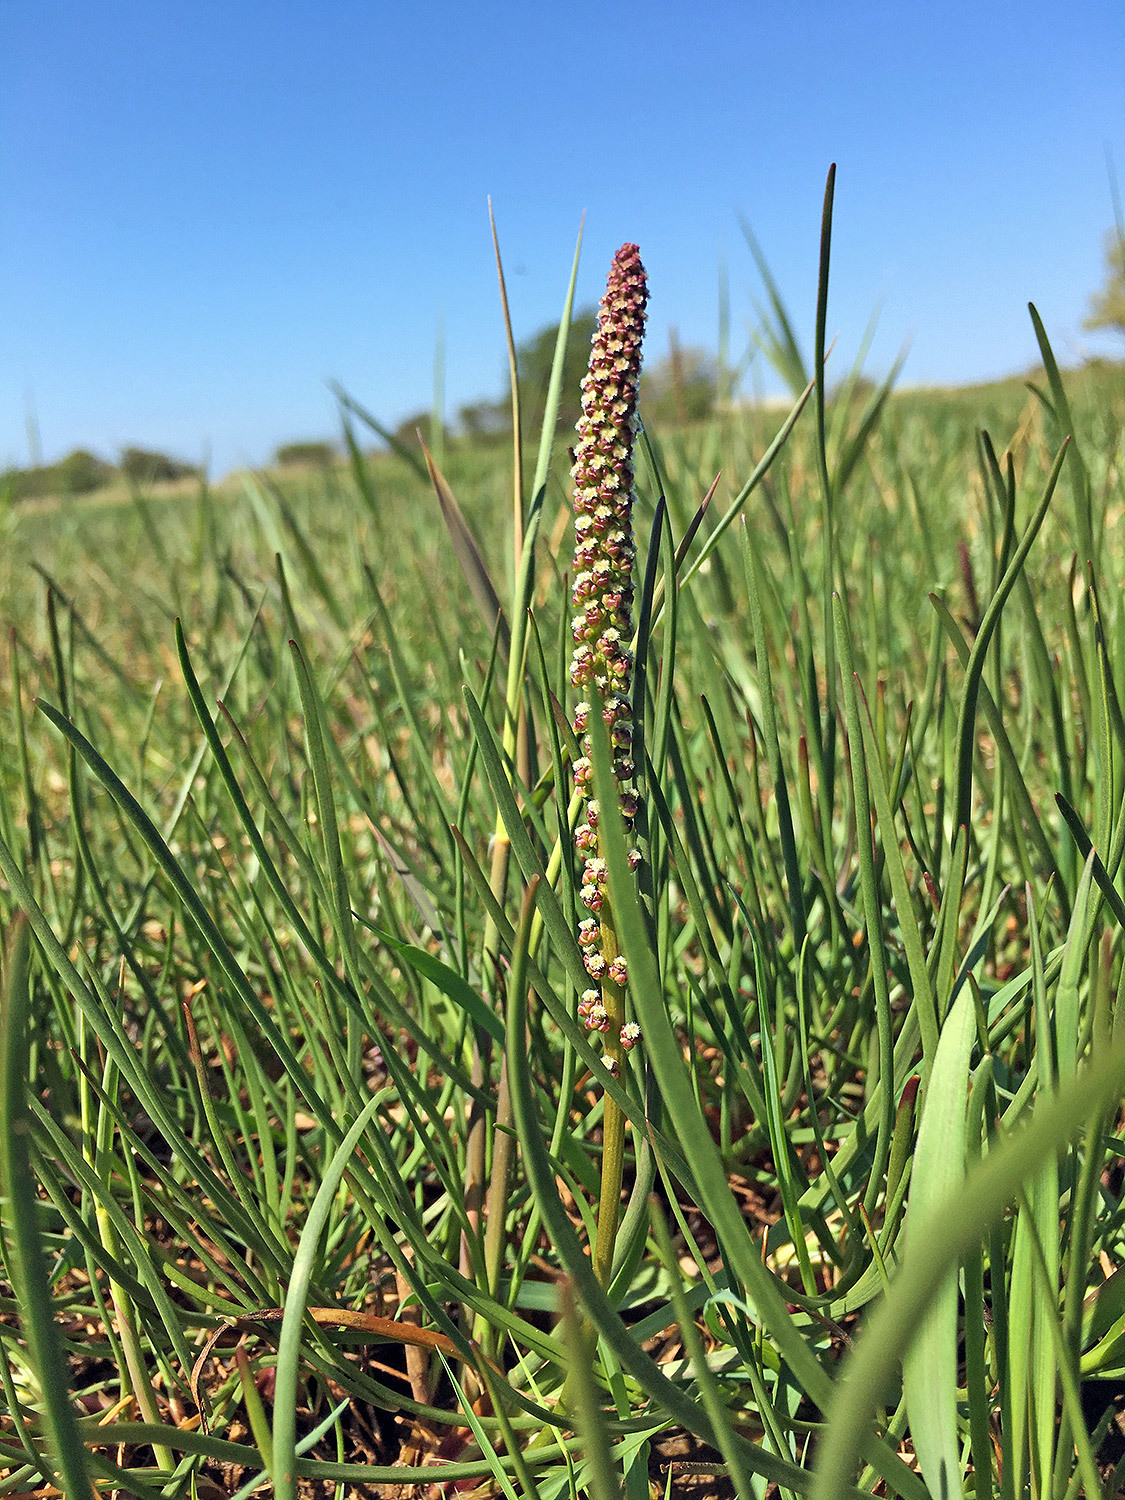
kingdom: Plantae
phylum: Tracheophyta
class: Liliopsida
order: Alismatales
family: Juncaginaceae
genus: Triglochin
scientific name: Triglochin maritima
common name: Sea arrowgrass
